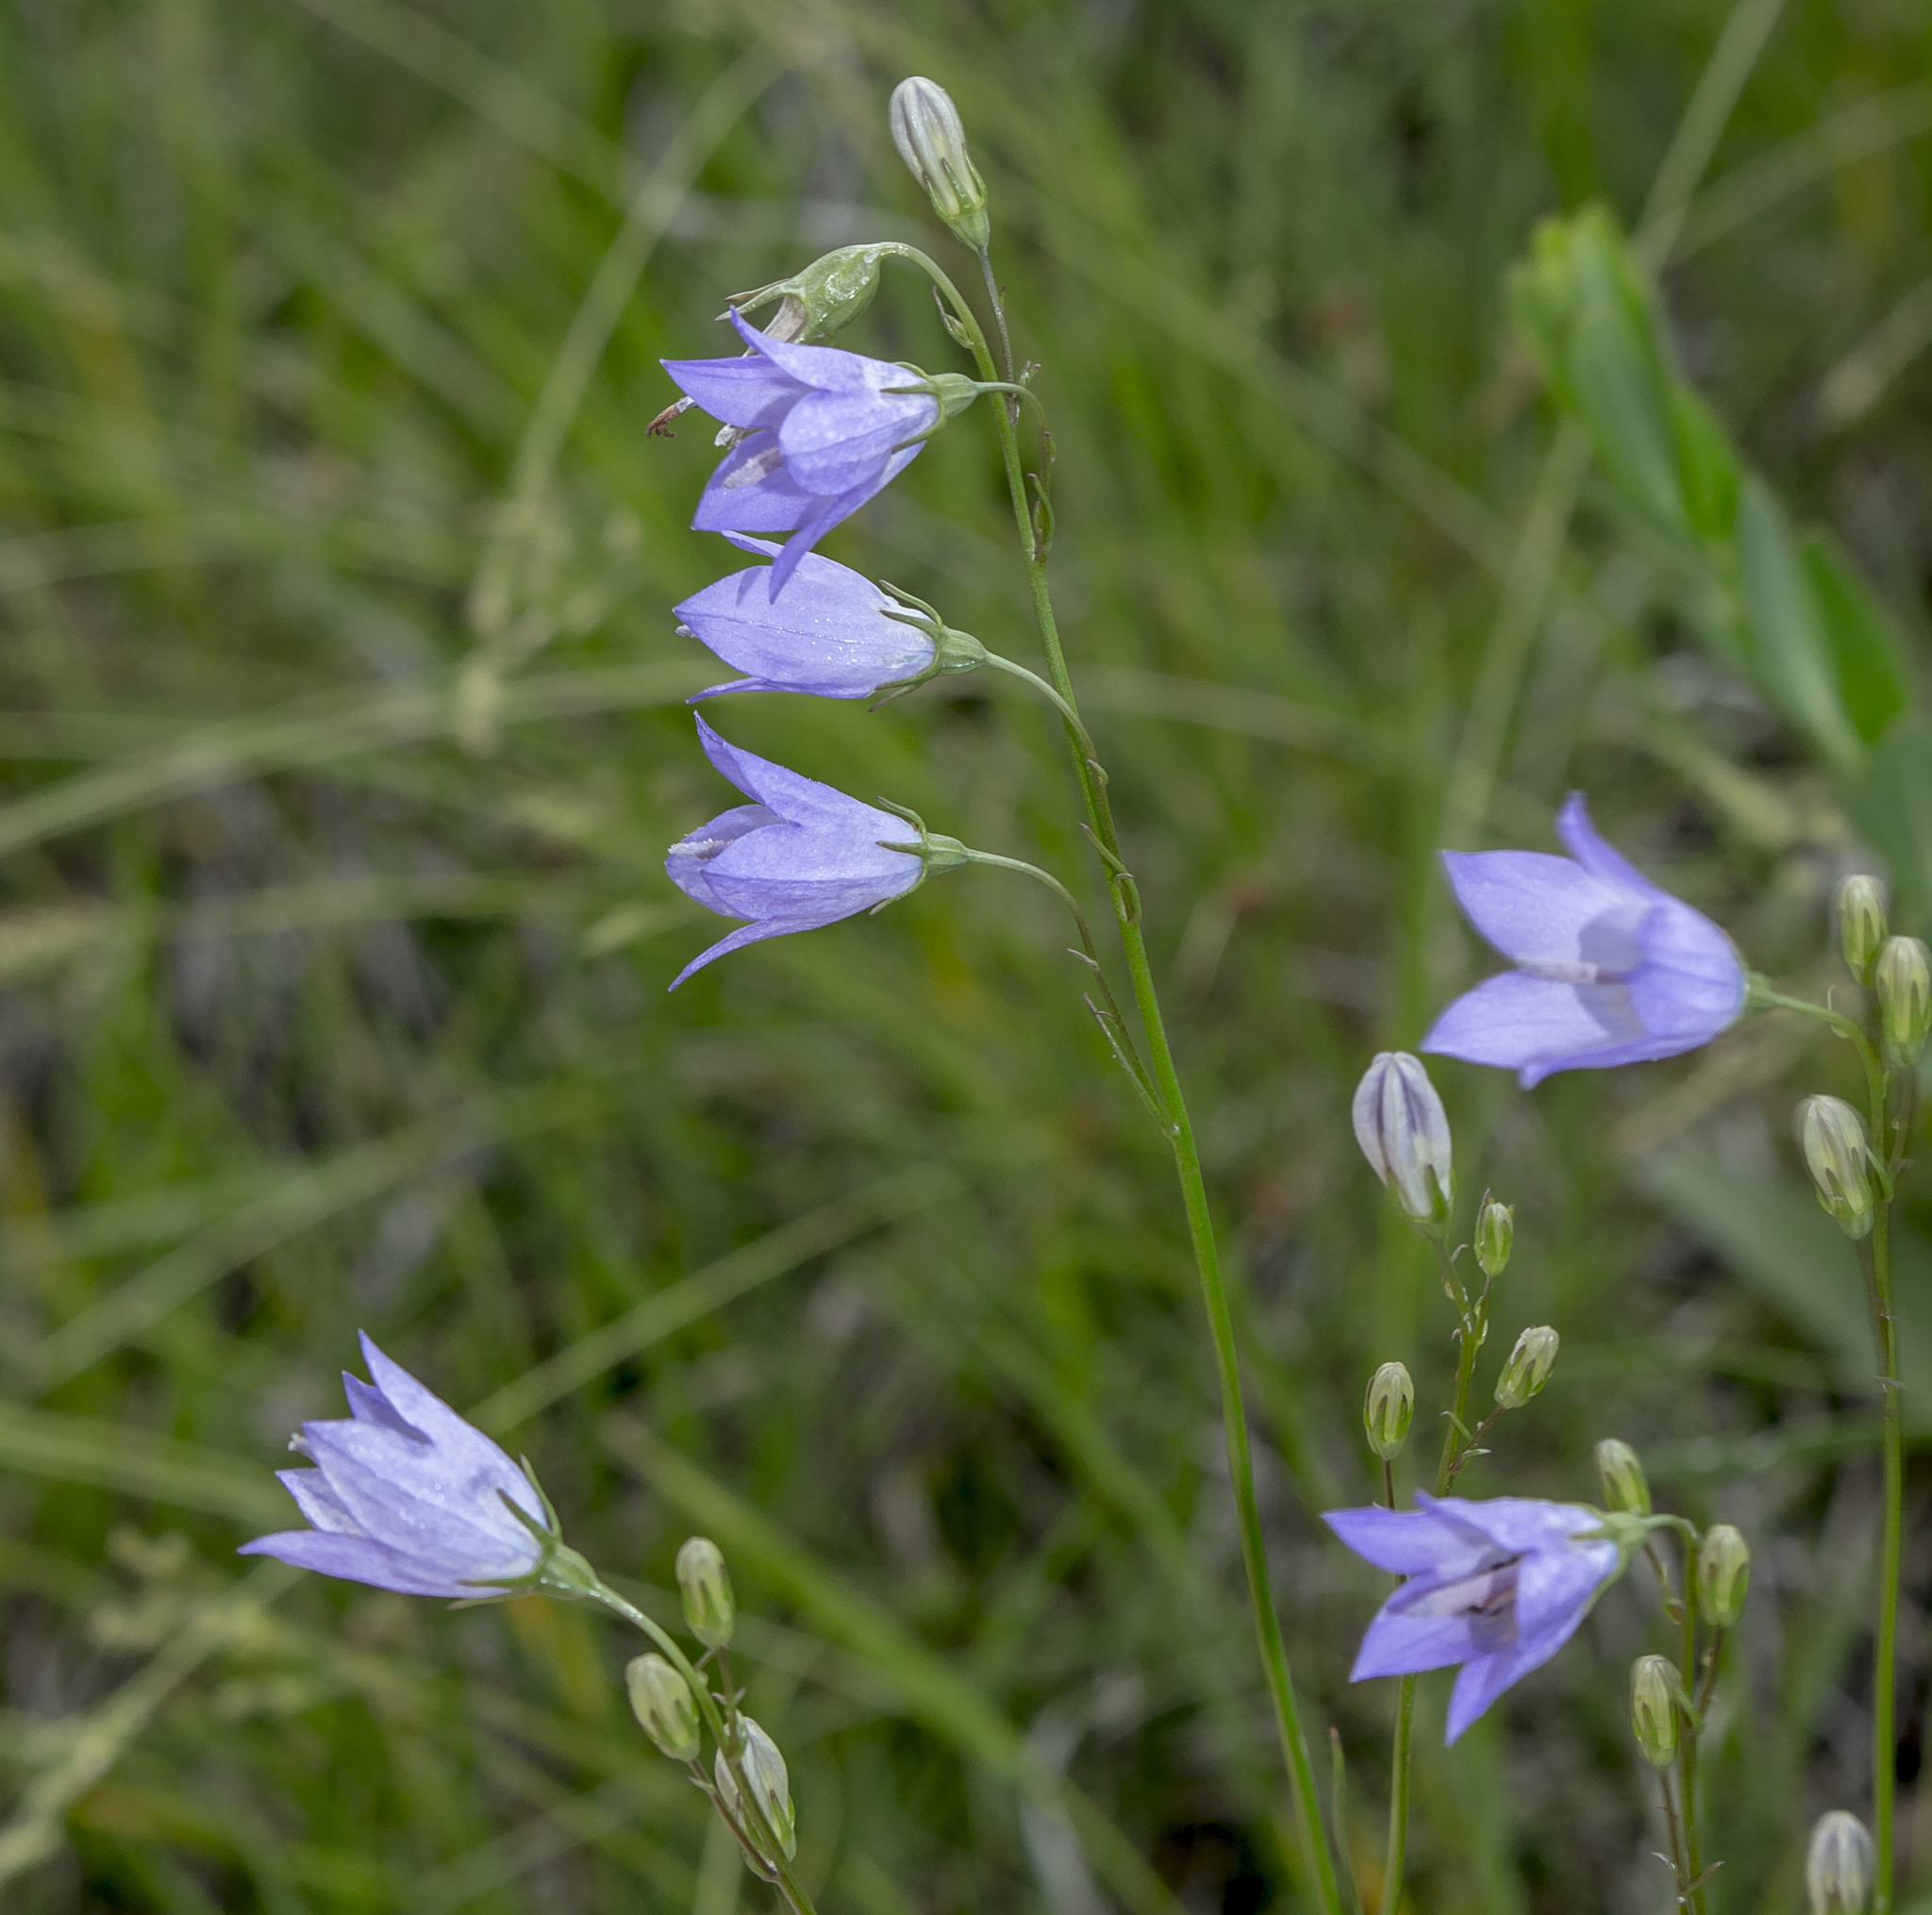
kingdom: Plantae
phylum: Tracheophyta
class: Magnoliopsida
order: Asterales
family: Campanulaceae
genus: Campanula
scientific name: Campanula intercedens
